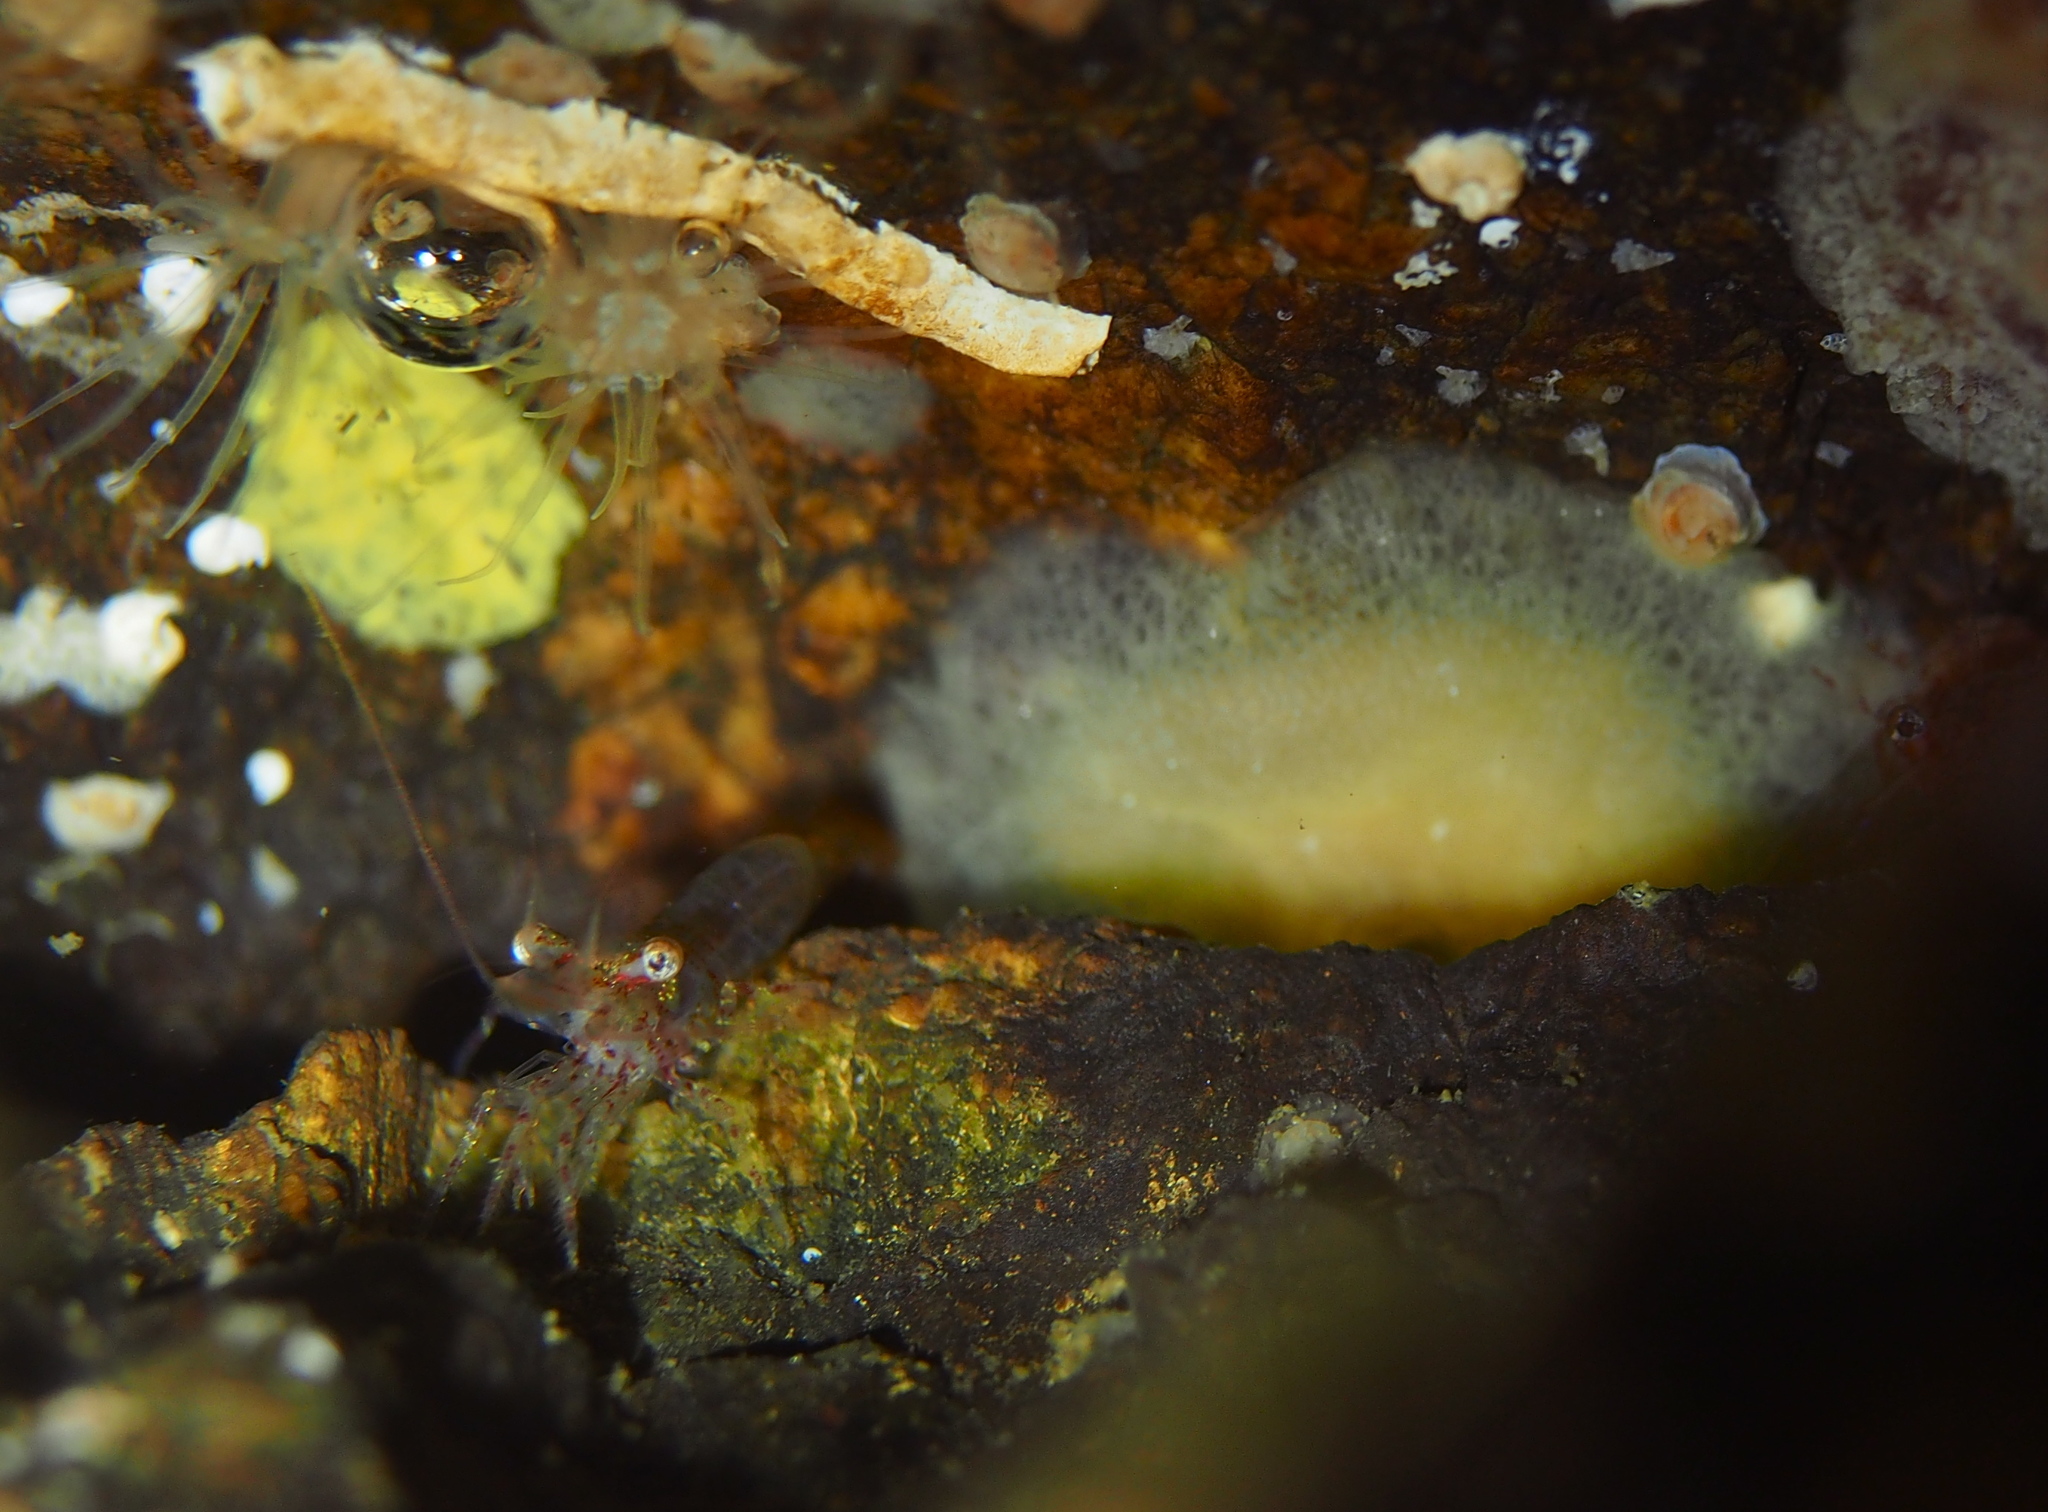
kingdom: Animalia
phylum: Mollusca
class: Gastropoda
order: Pleurobranchida
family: Pleurobranchidae
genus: Berthella
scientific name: Berthella plumula
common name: Yellow-plumed sea slug
